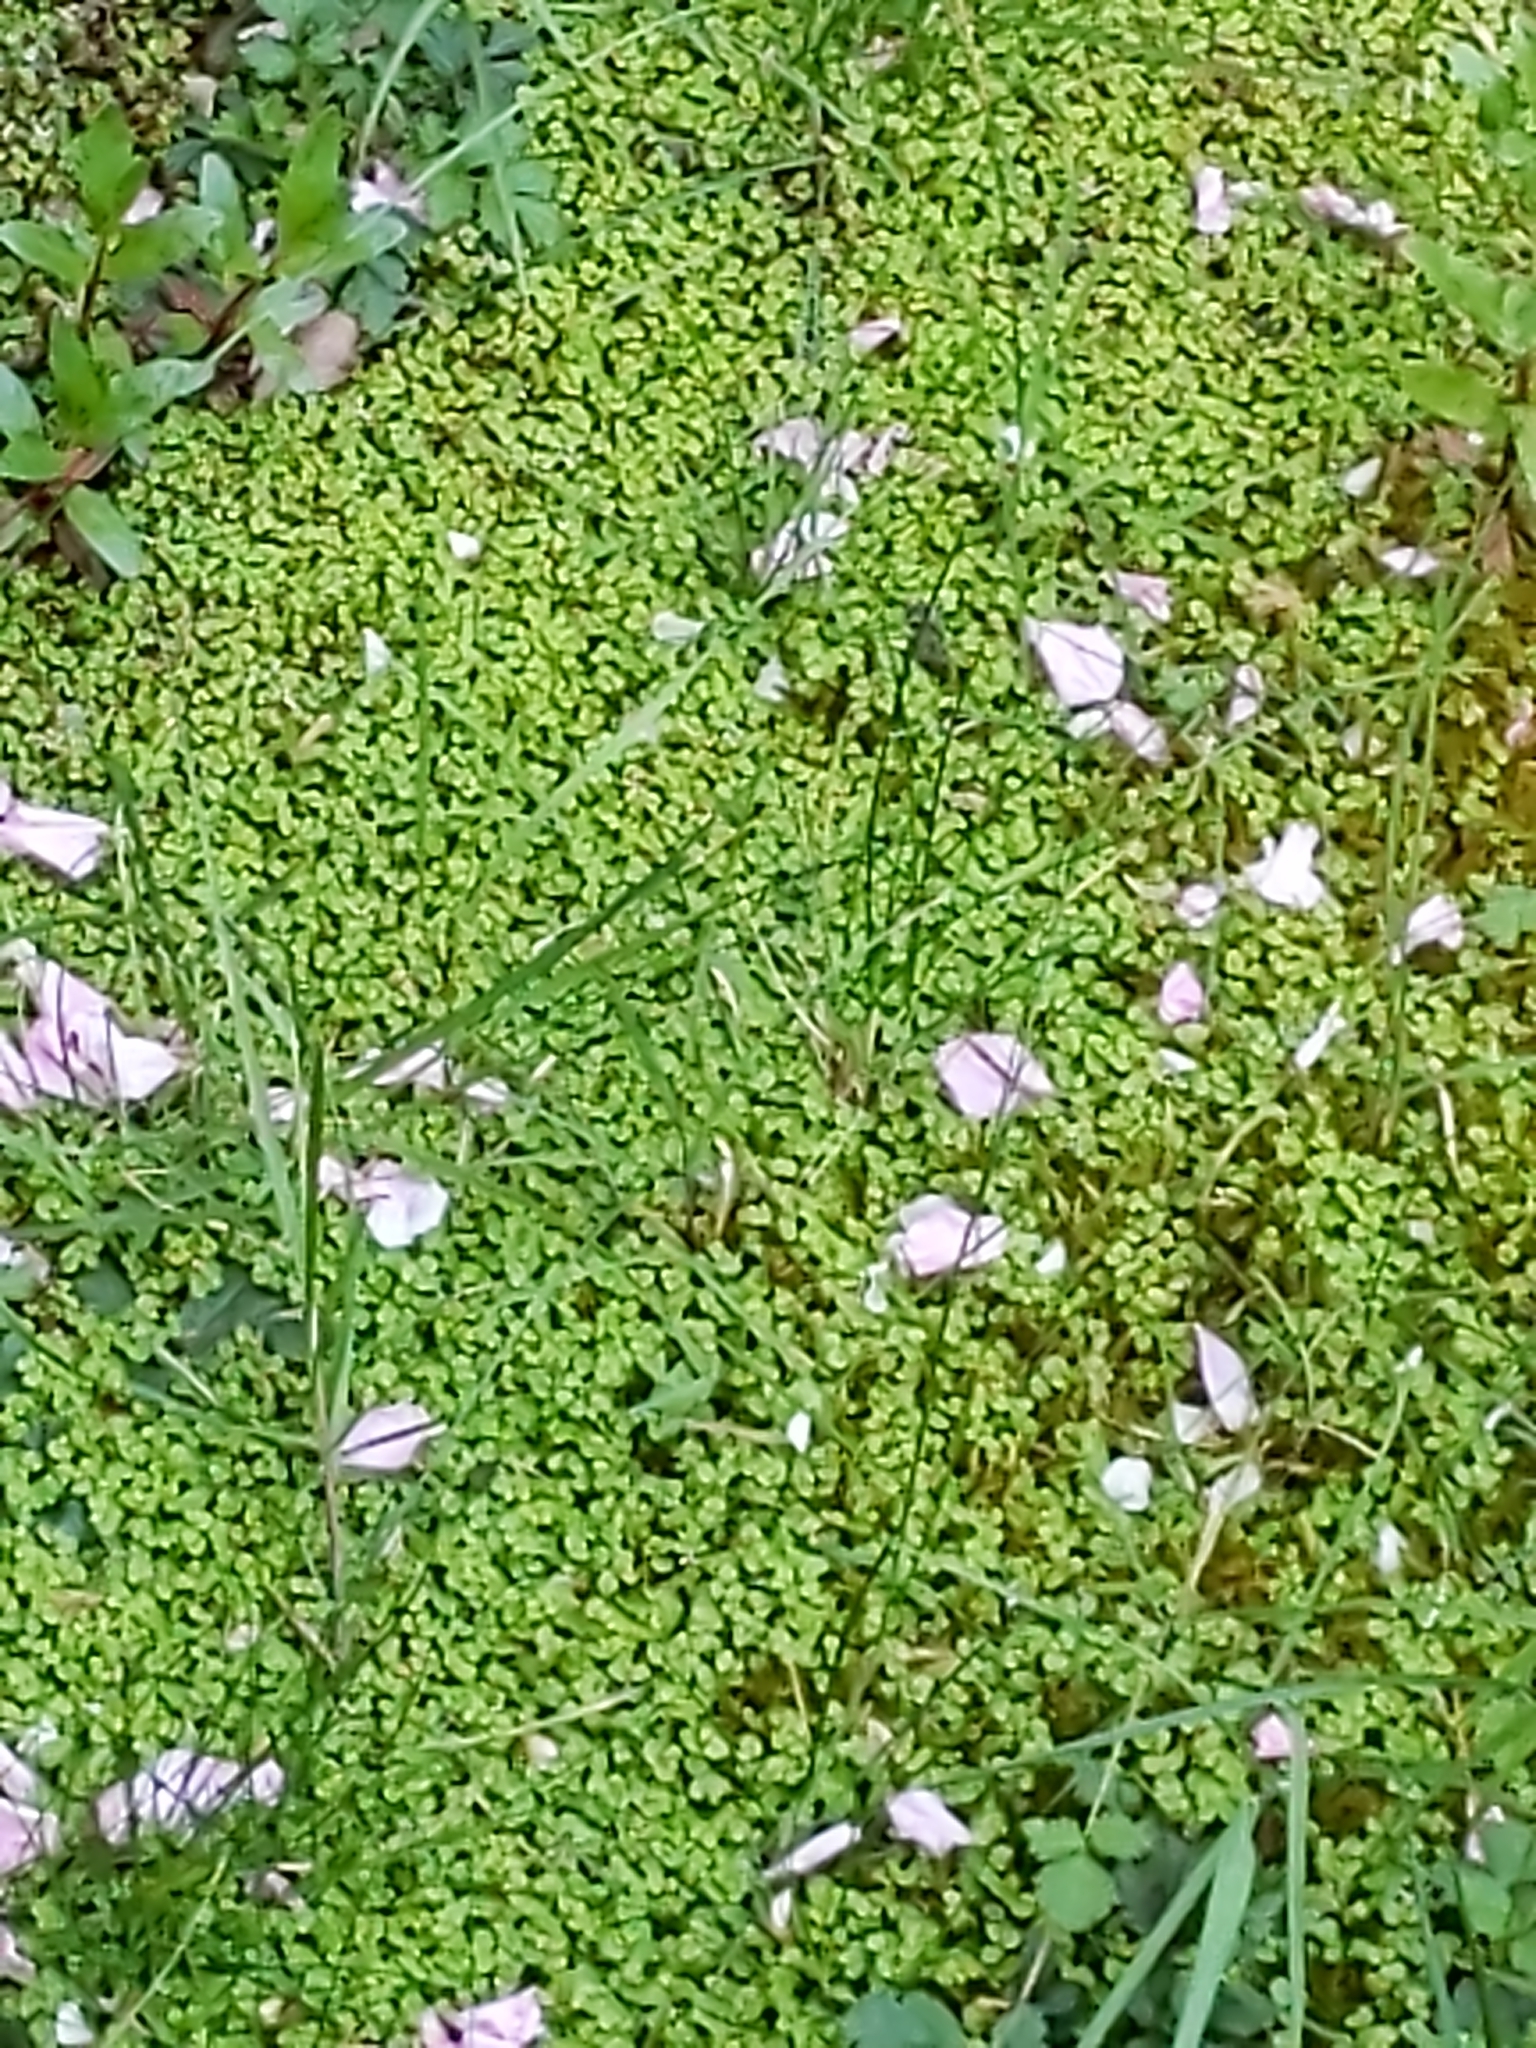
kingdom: Plantae
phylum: Tracheophyta
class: Magnoliopsida
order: Rosales
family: Urticaceae
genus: Soleirolia
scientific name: Soleirolia soleirolii
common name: Mind-your-own-business
